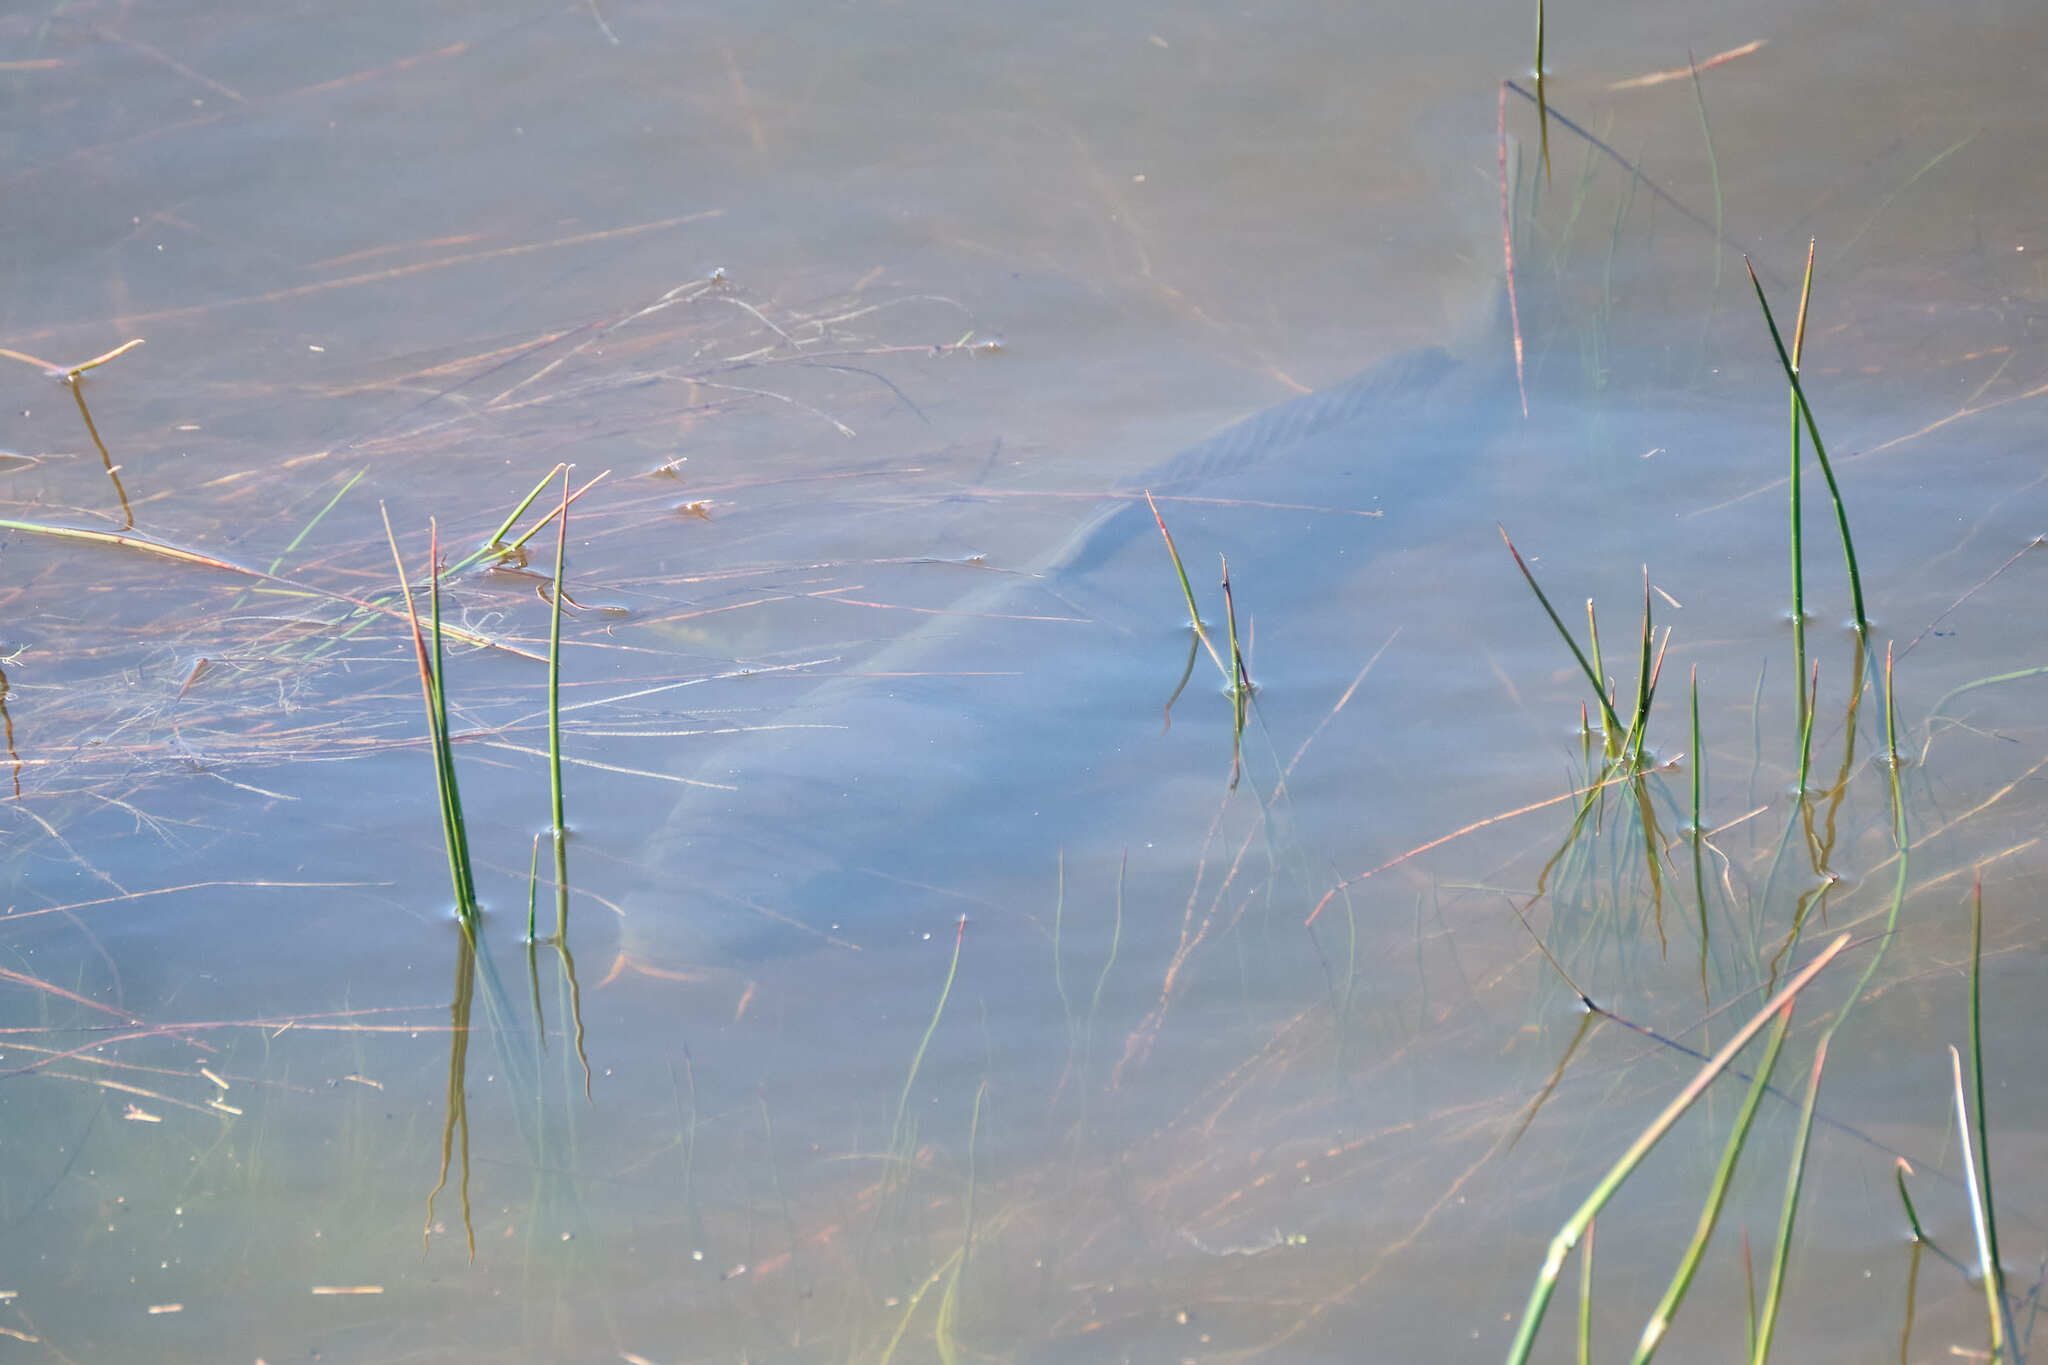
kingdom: Animalia
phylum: Chordata
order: Cypriniformes
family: Cyprinidae
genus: Cyprinus
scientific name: Cyprinus carpio
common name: Common carp
